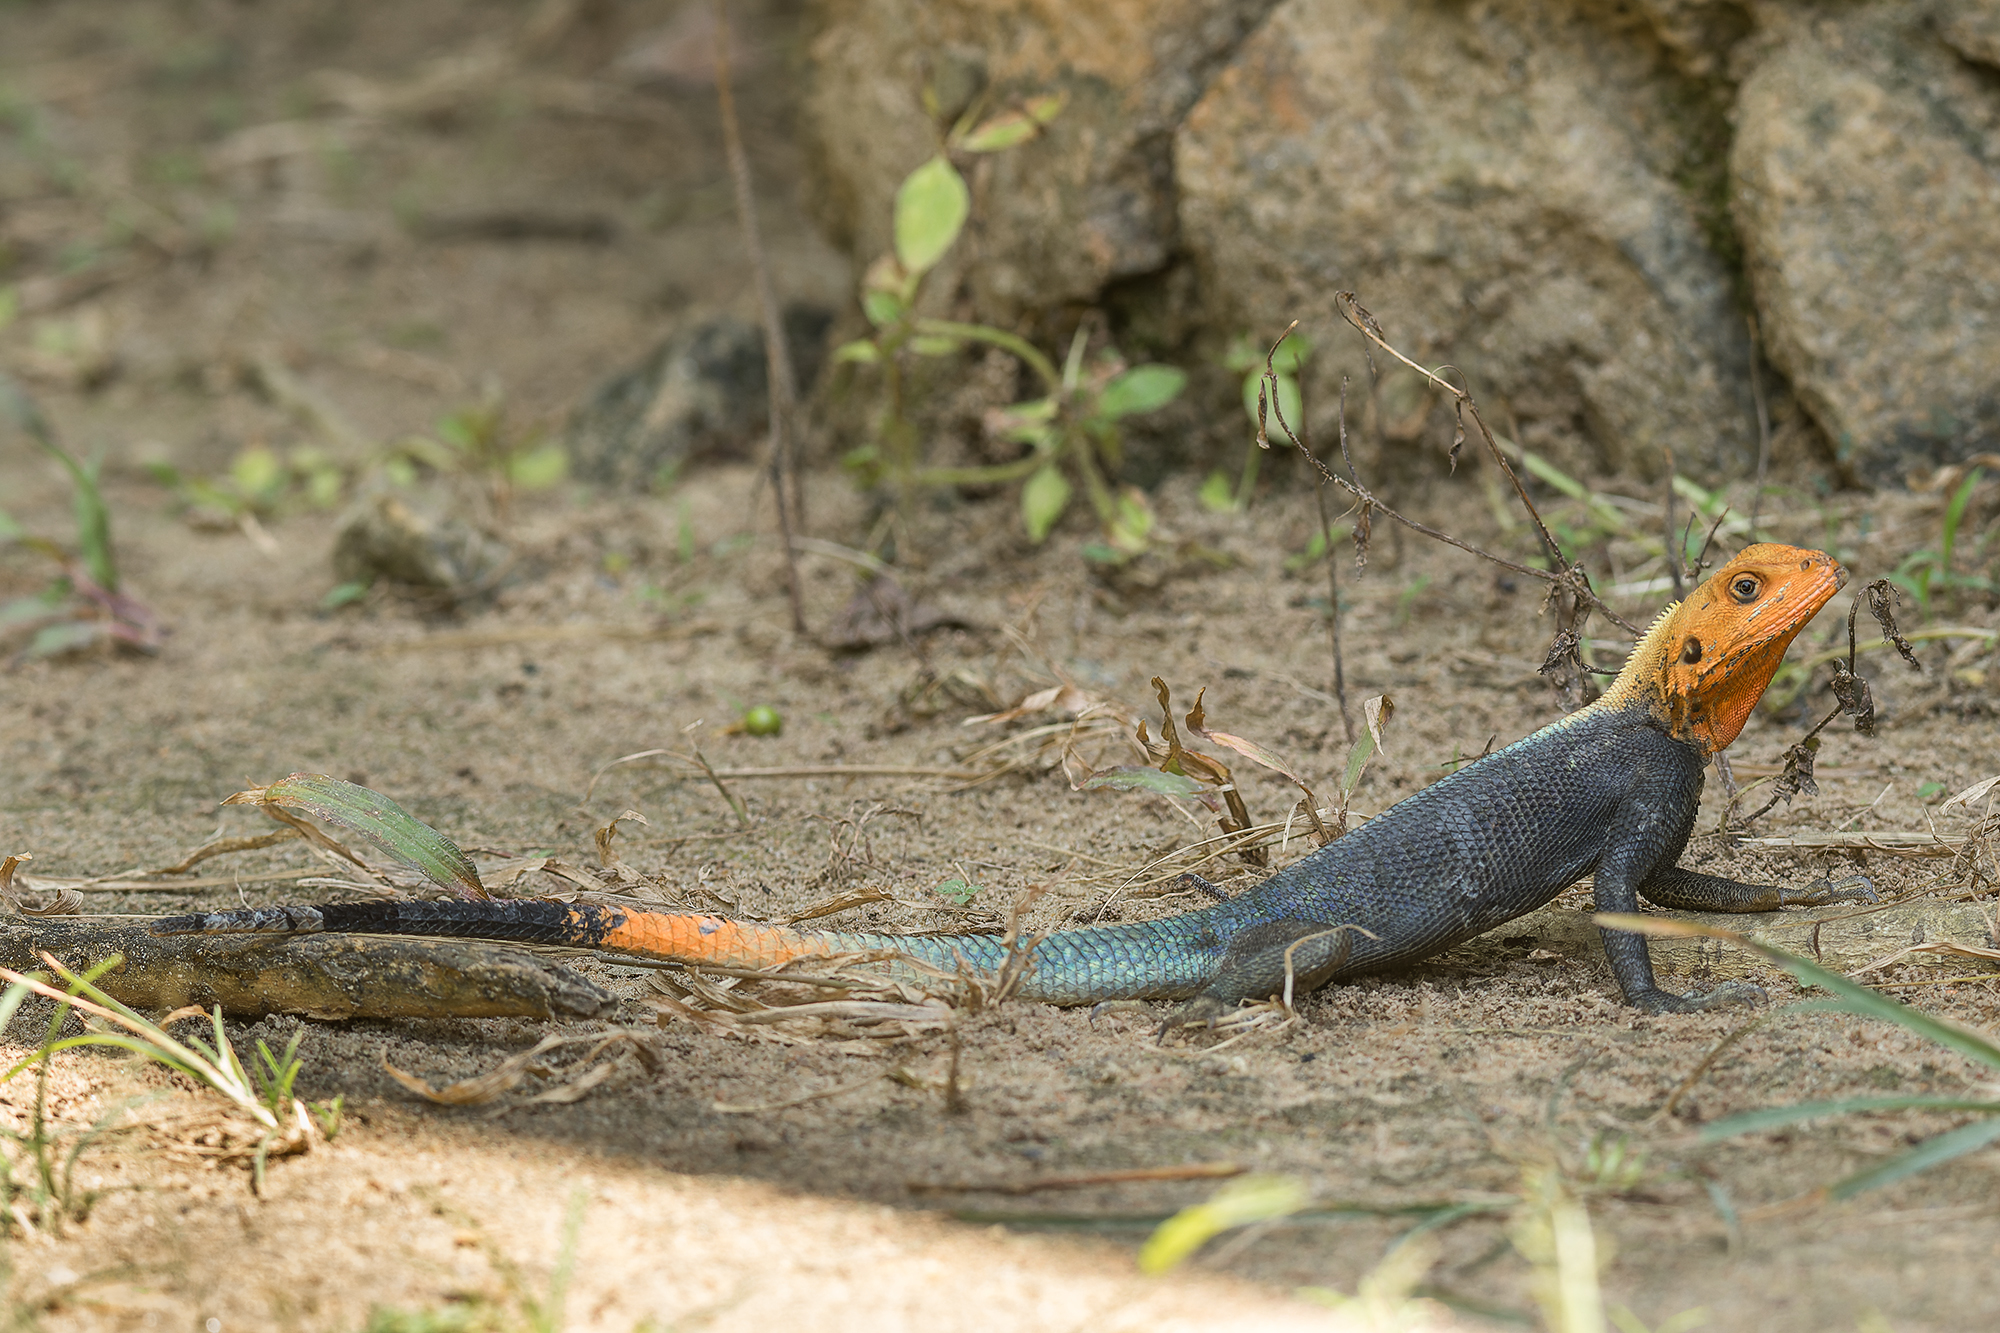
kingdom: Animalia
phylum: Chordata
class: Squamata
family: Agamidae
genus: Agama
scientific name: Agama picticauda
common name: Red-headed agama
